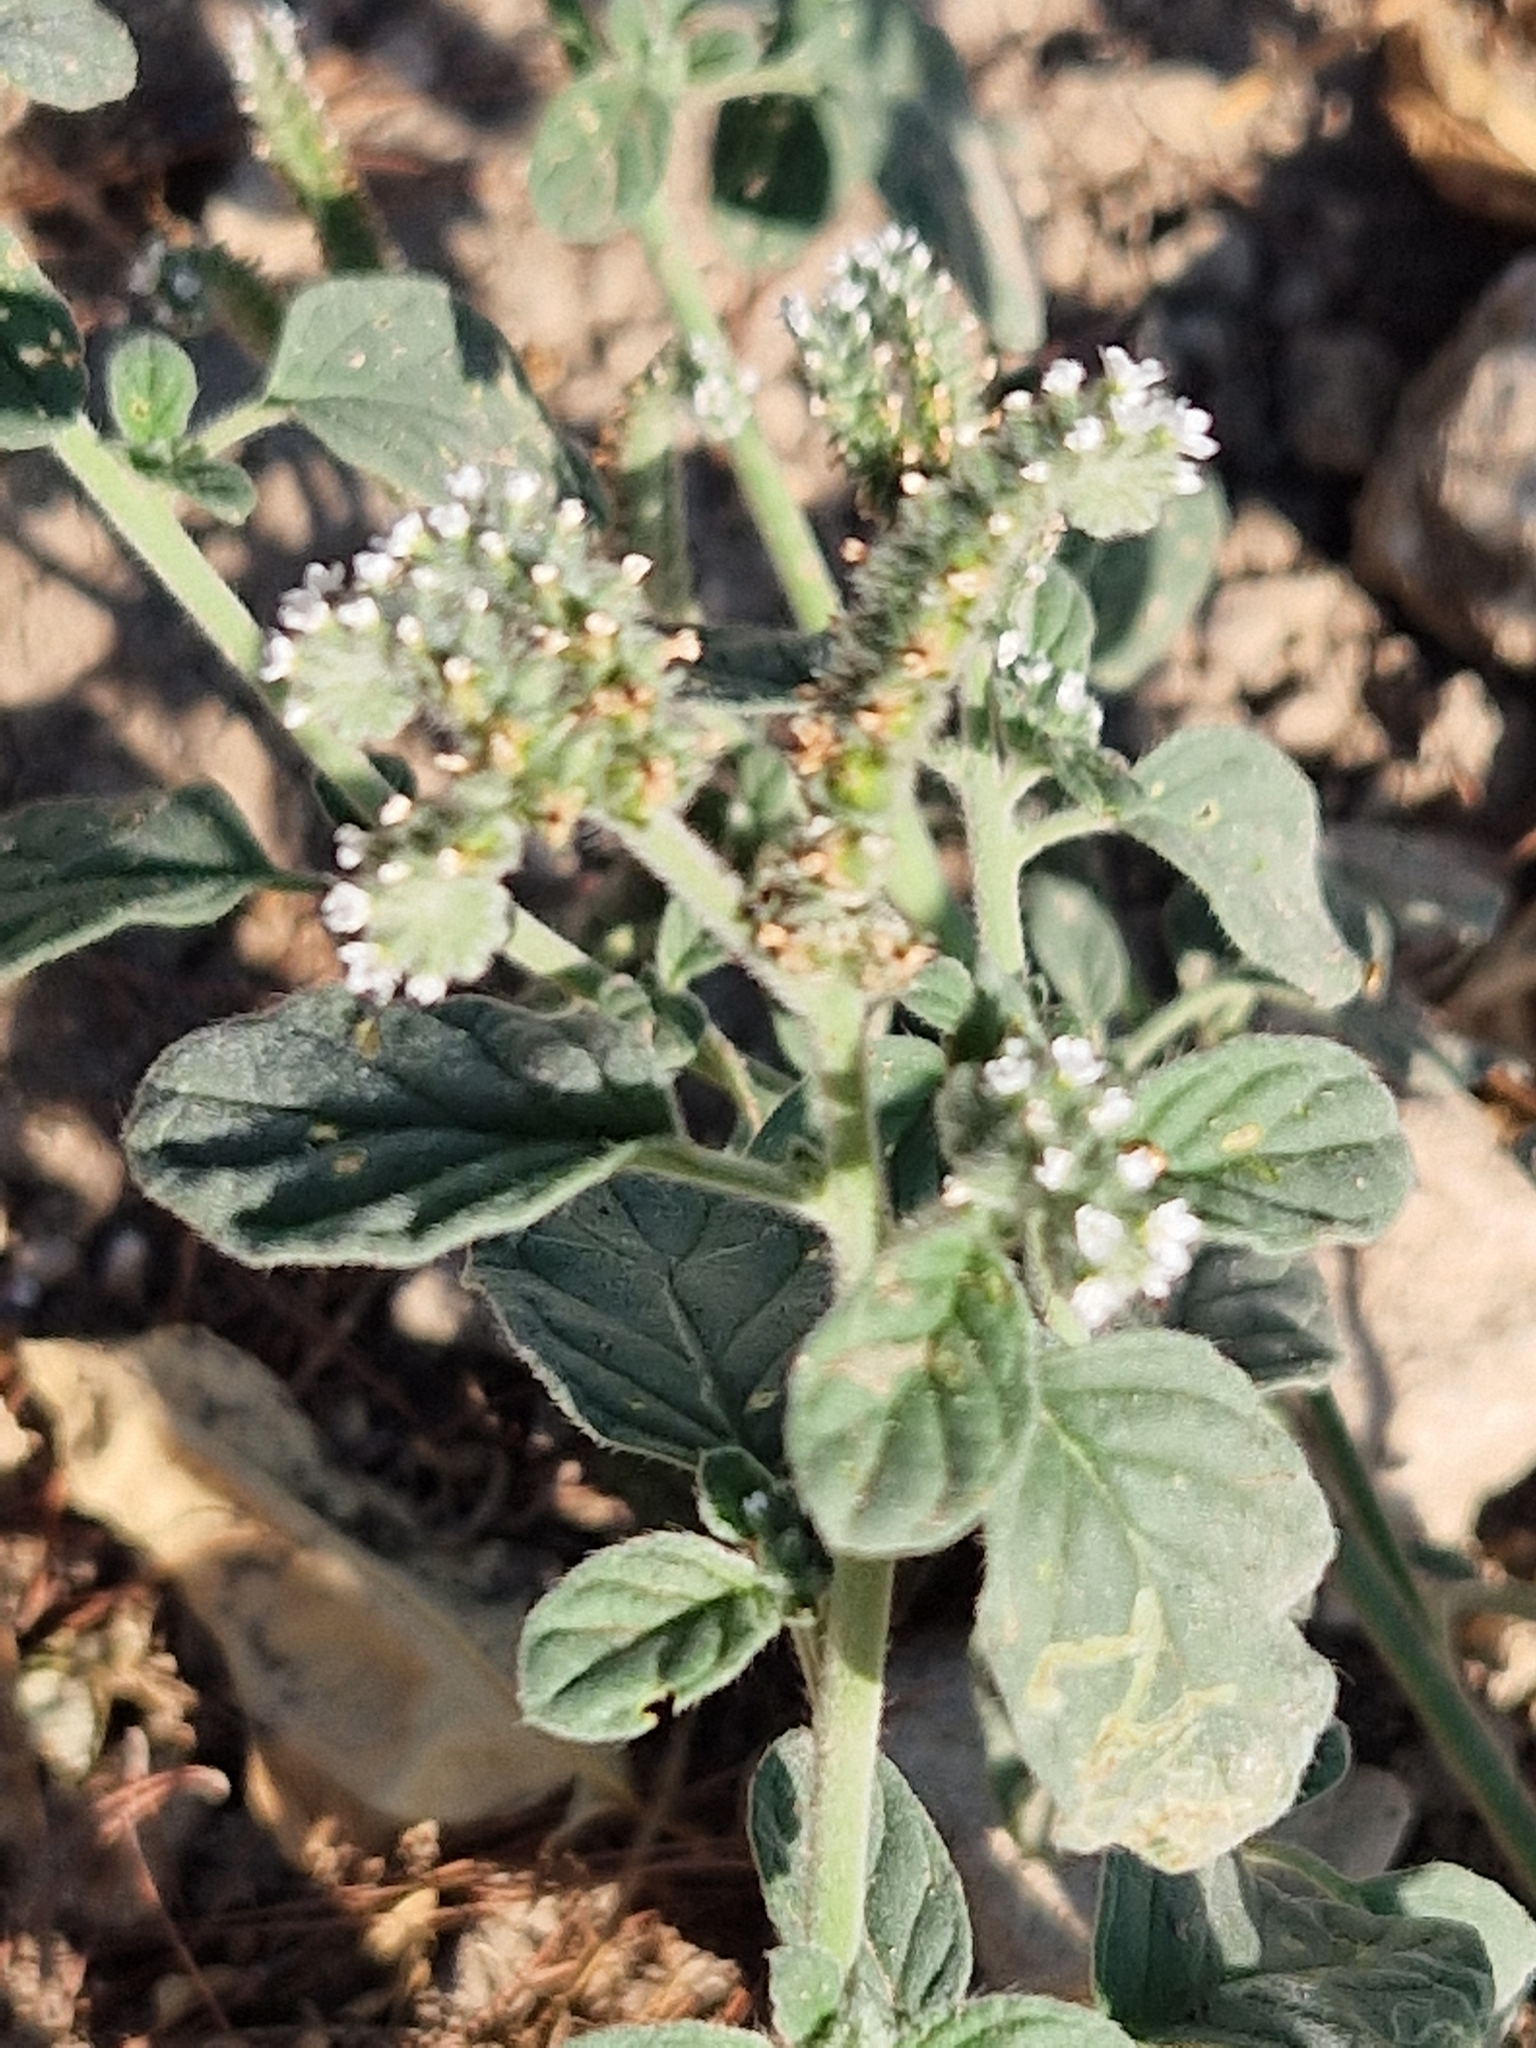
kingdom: Plantae
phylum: Tracheophyta
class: Magnoliopsida
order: Boraginales
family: Heliotropiaceae
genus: Heliotropium
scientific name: Heliotropium europaeum
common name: European heliotrope
